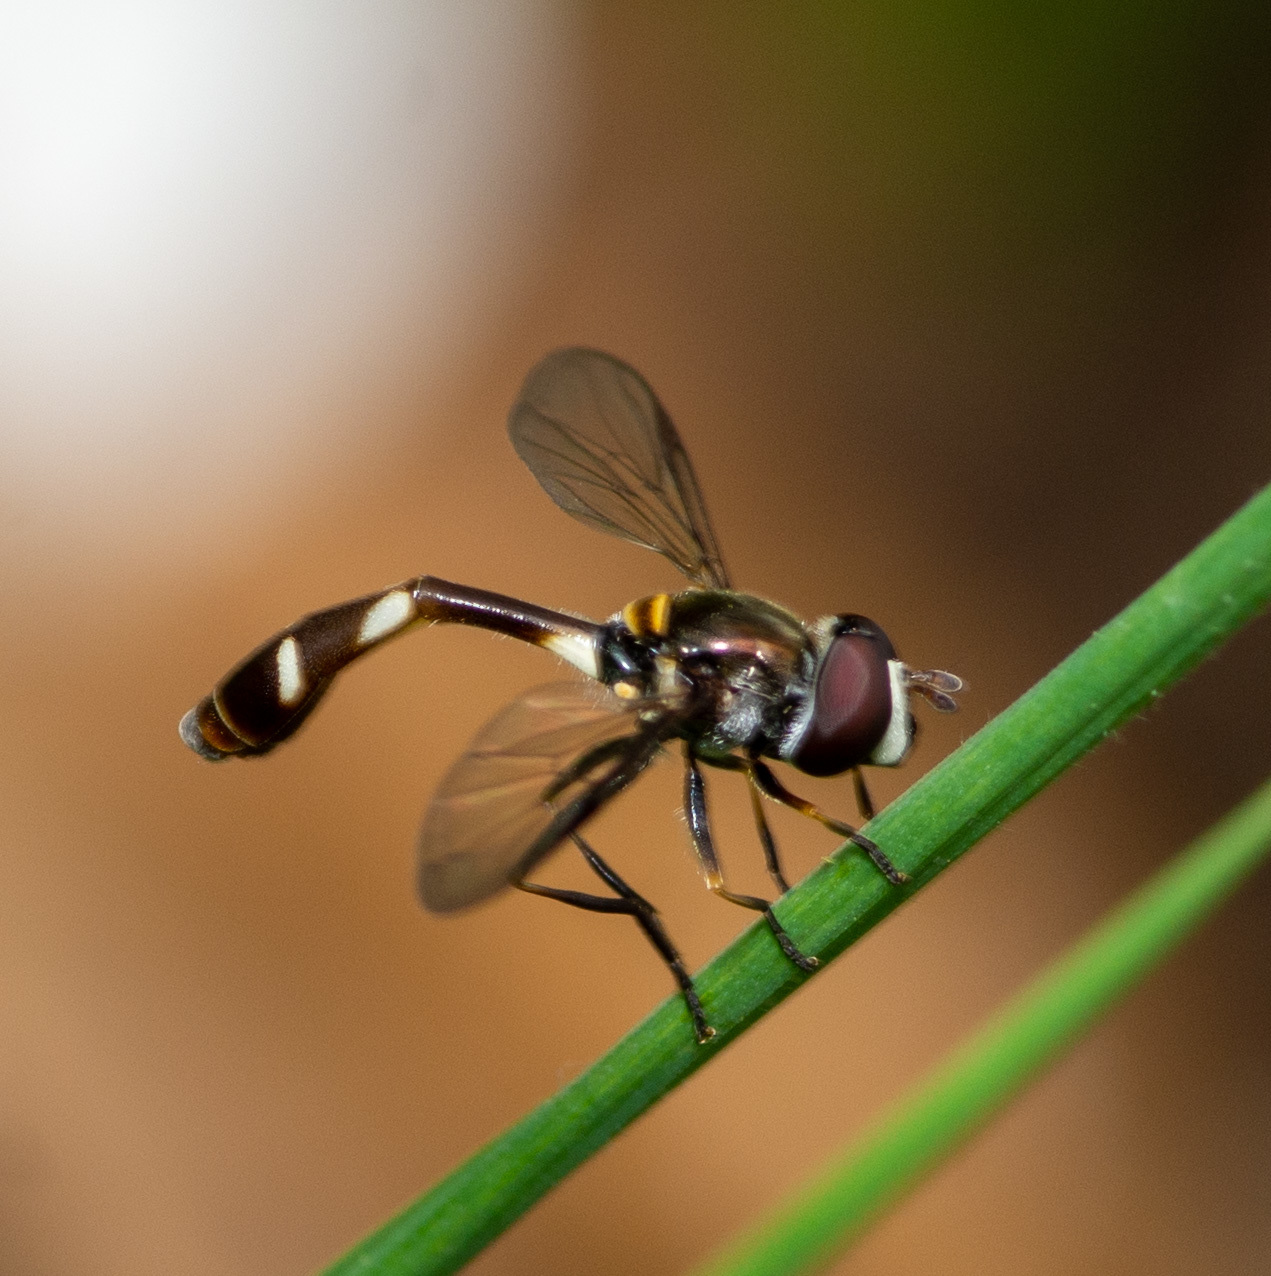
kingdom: Animalia
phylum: Arthropoda
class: Insecta
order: Diptera
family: Syrphidae
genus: Dioprosopa
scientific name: Dioprosopa clavatus
